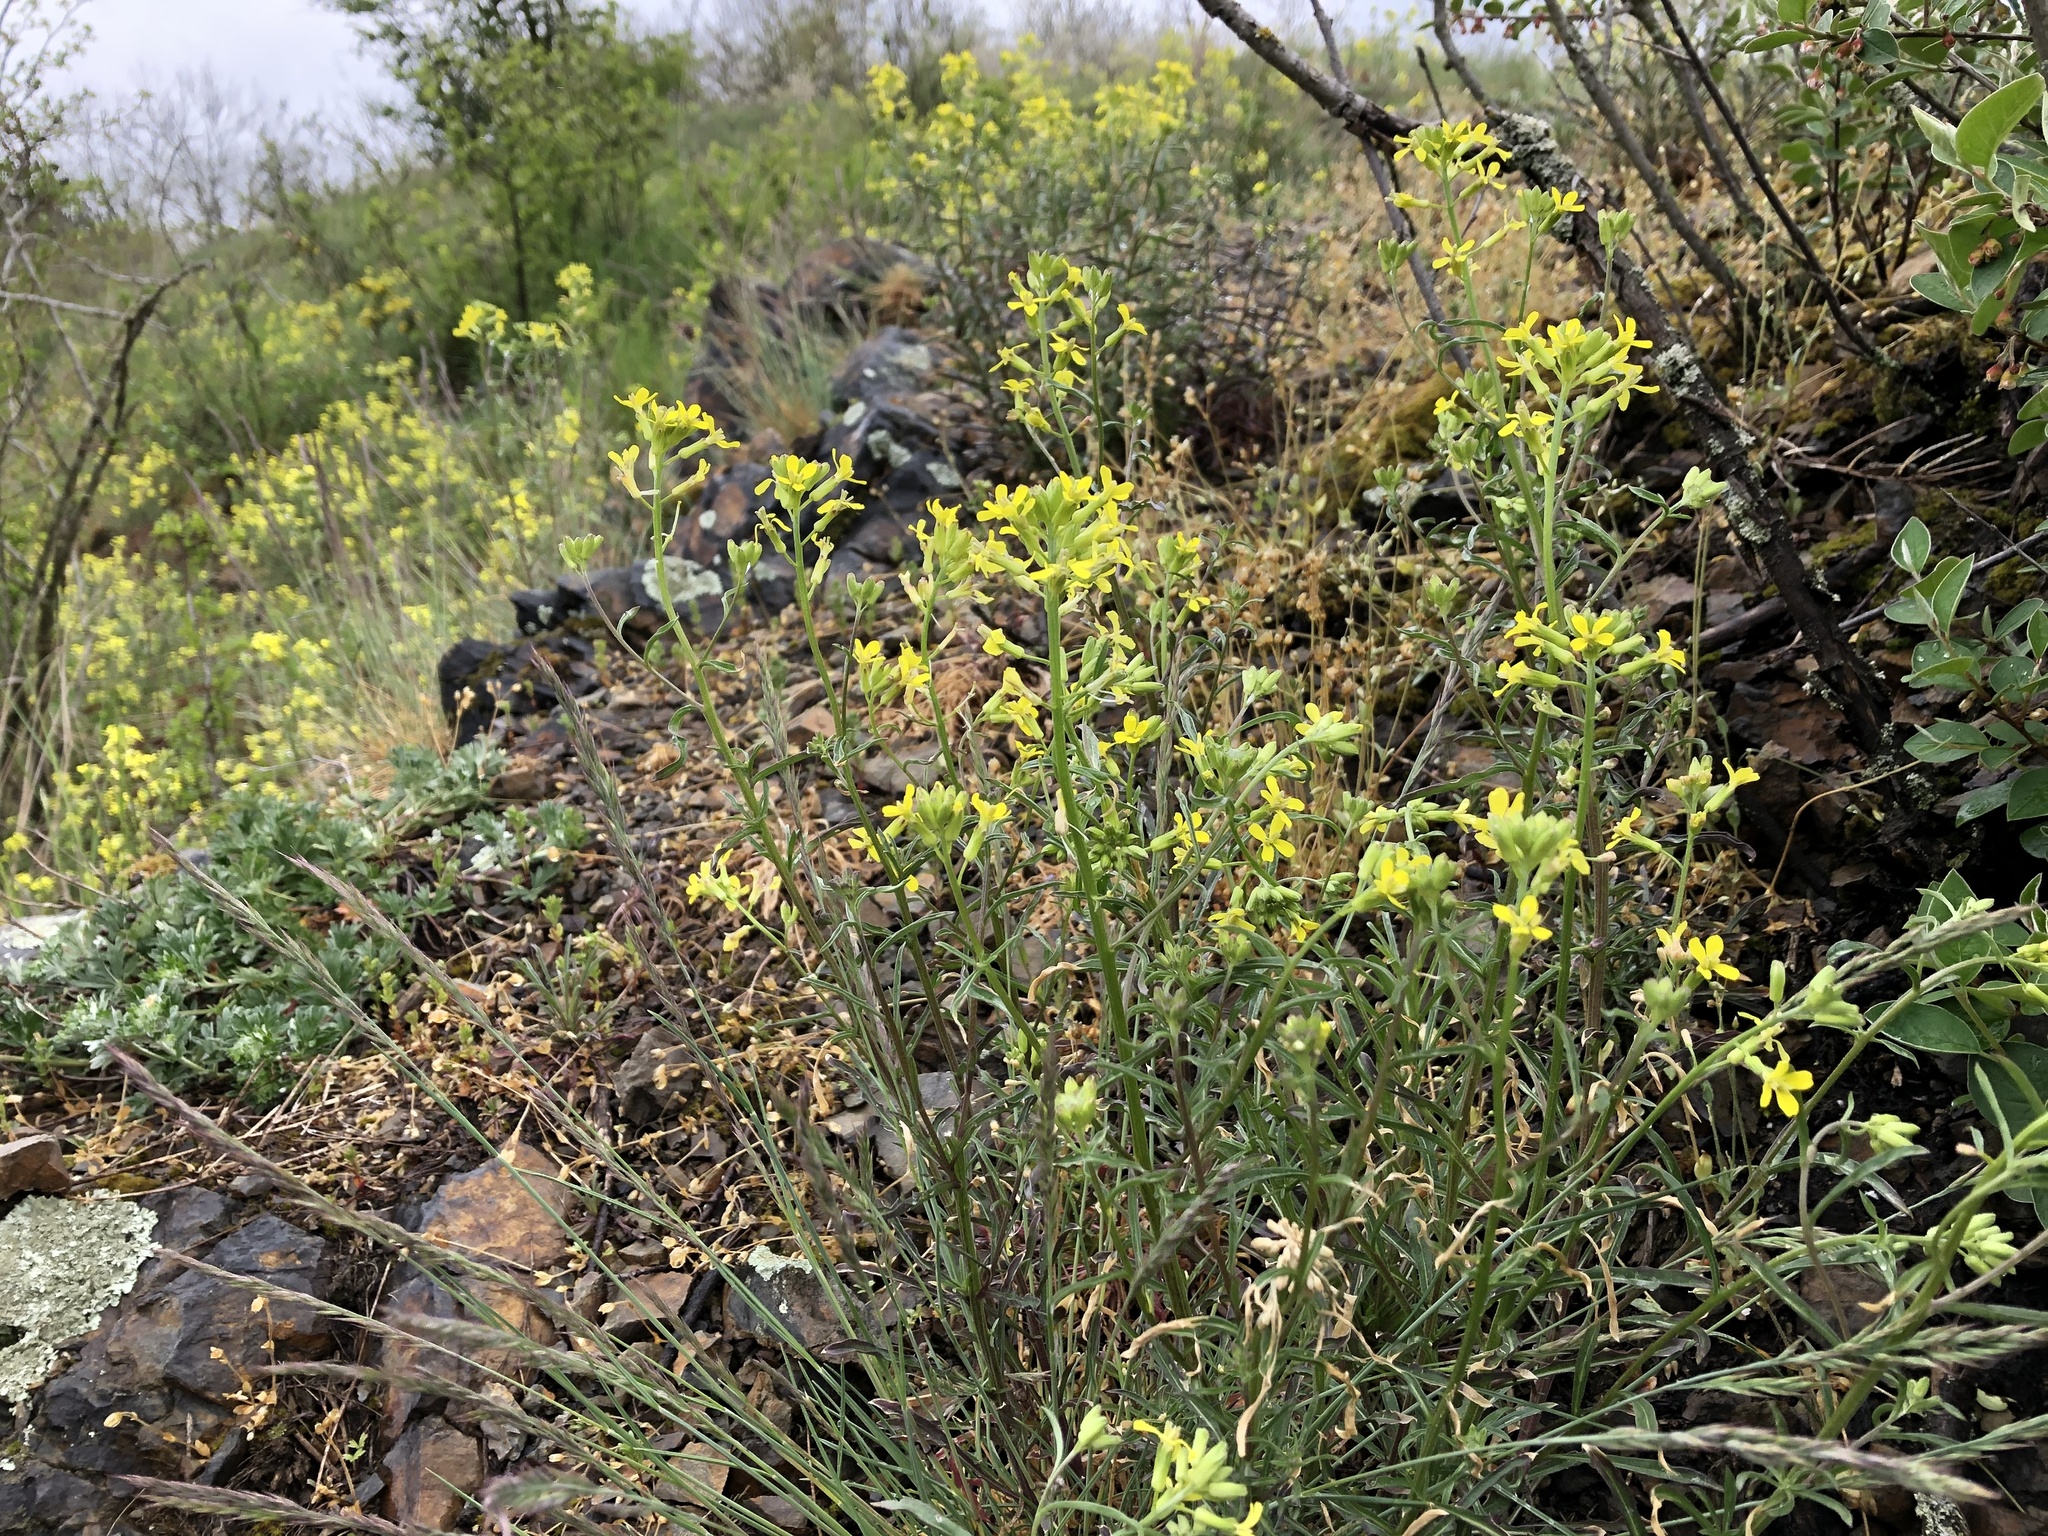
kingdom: Plantae
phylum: Tracheophyta
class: Magnoliopsida
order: Brassicales
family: Brassicaceae
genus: Erysimum
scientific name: Erysimum crepidifolium
